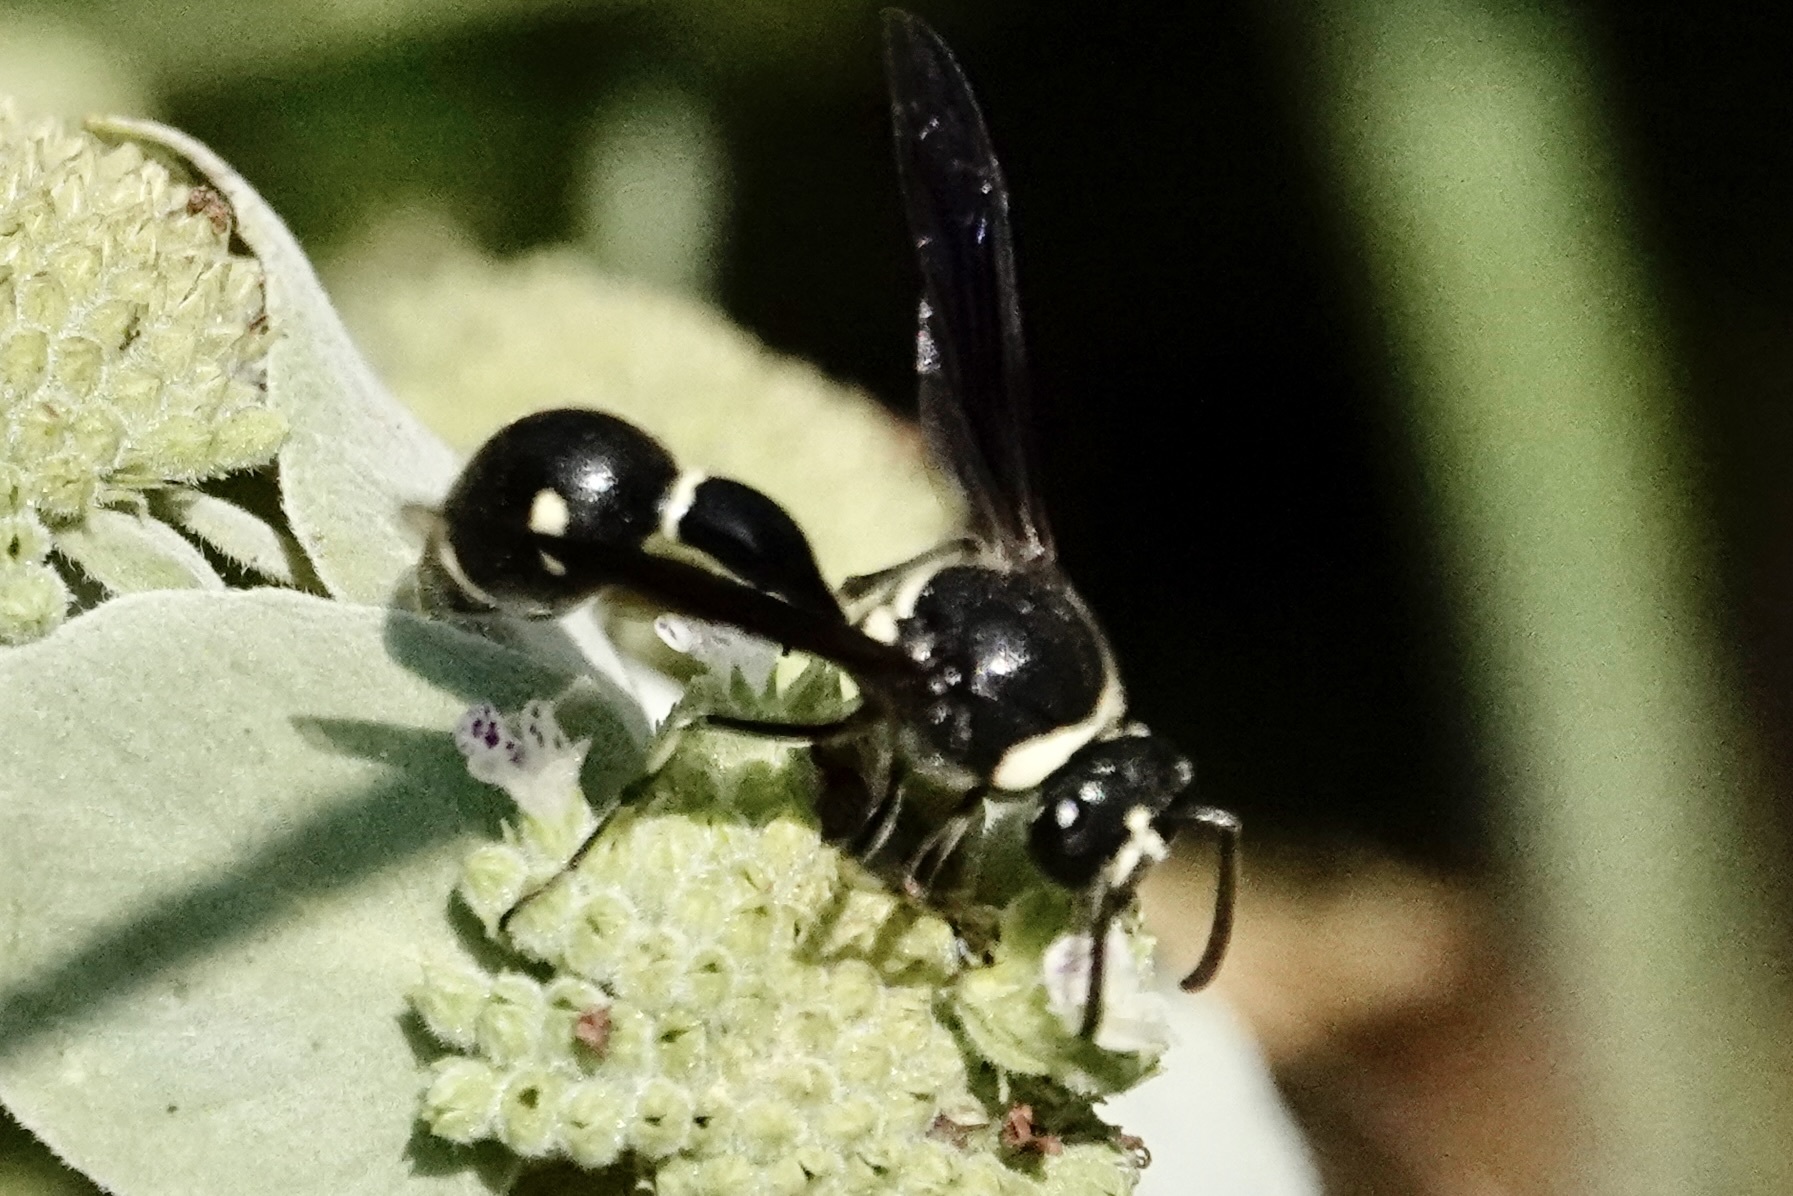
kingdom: Animalia
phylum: Arthropoda
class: Insecta
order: Hymenoptera
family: Vespidae
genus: Eumenes
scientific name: Eumenes fraternus
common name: Fraternal potter wasp
